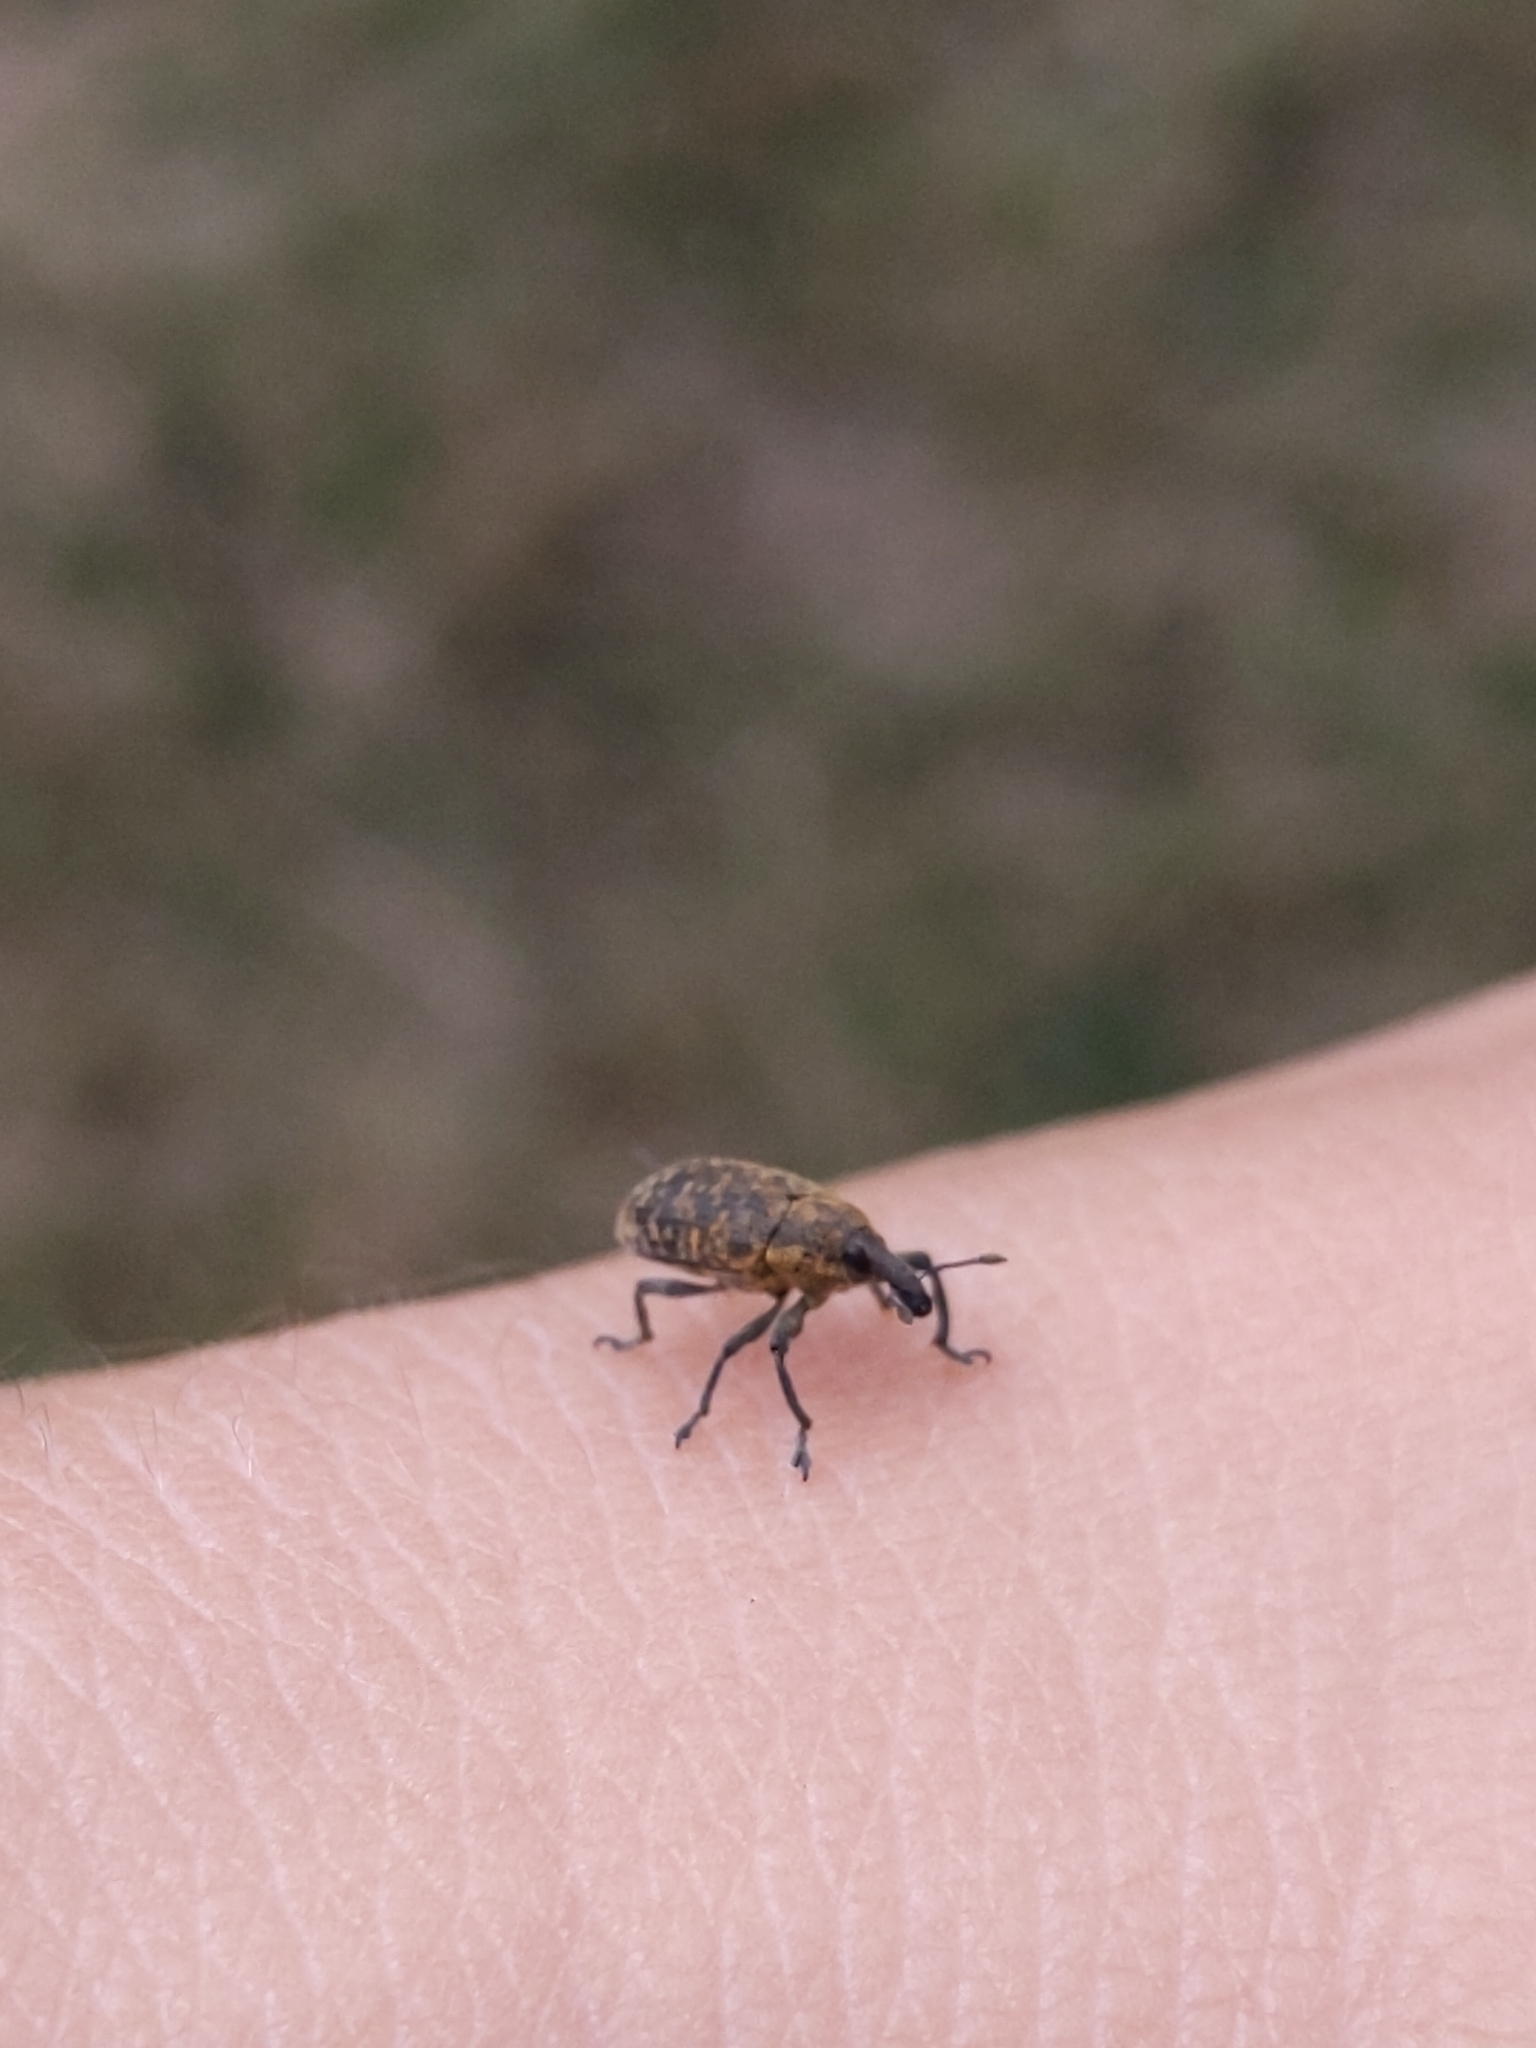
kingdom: Animalia
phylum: Arthropoda
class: Insecta
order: Coleoptera
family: Curculionidae
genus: Larinus
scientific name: Larinus carlinae
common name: Weevil
